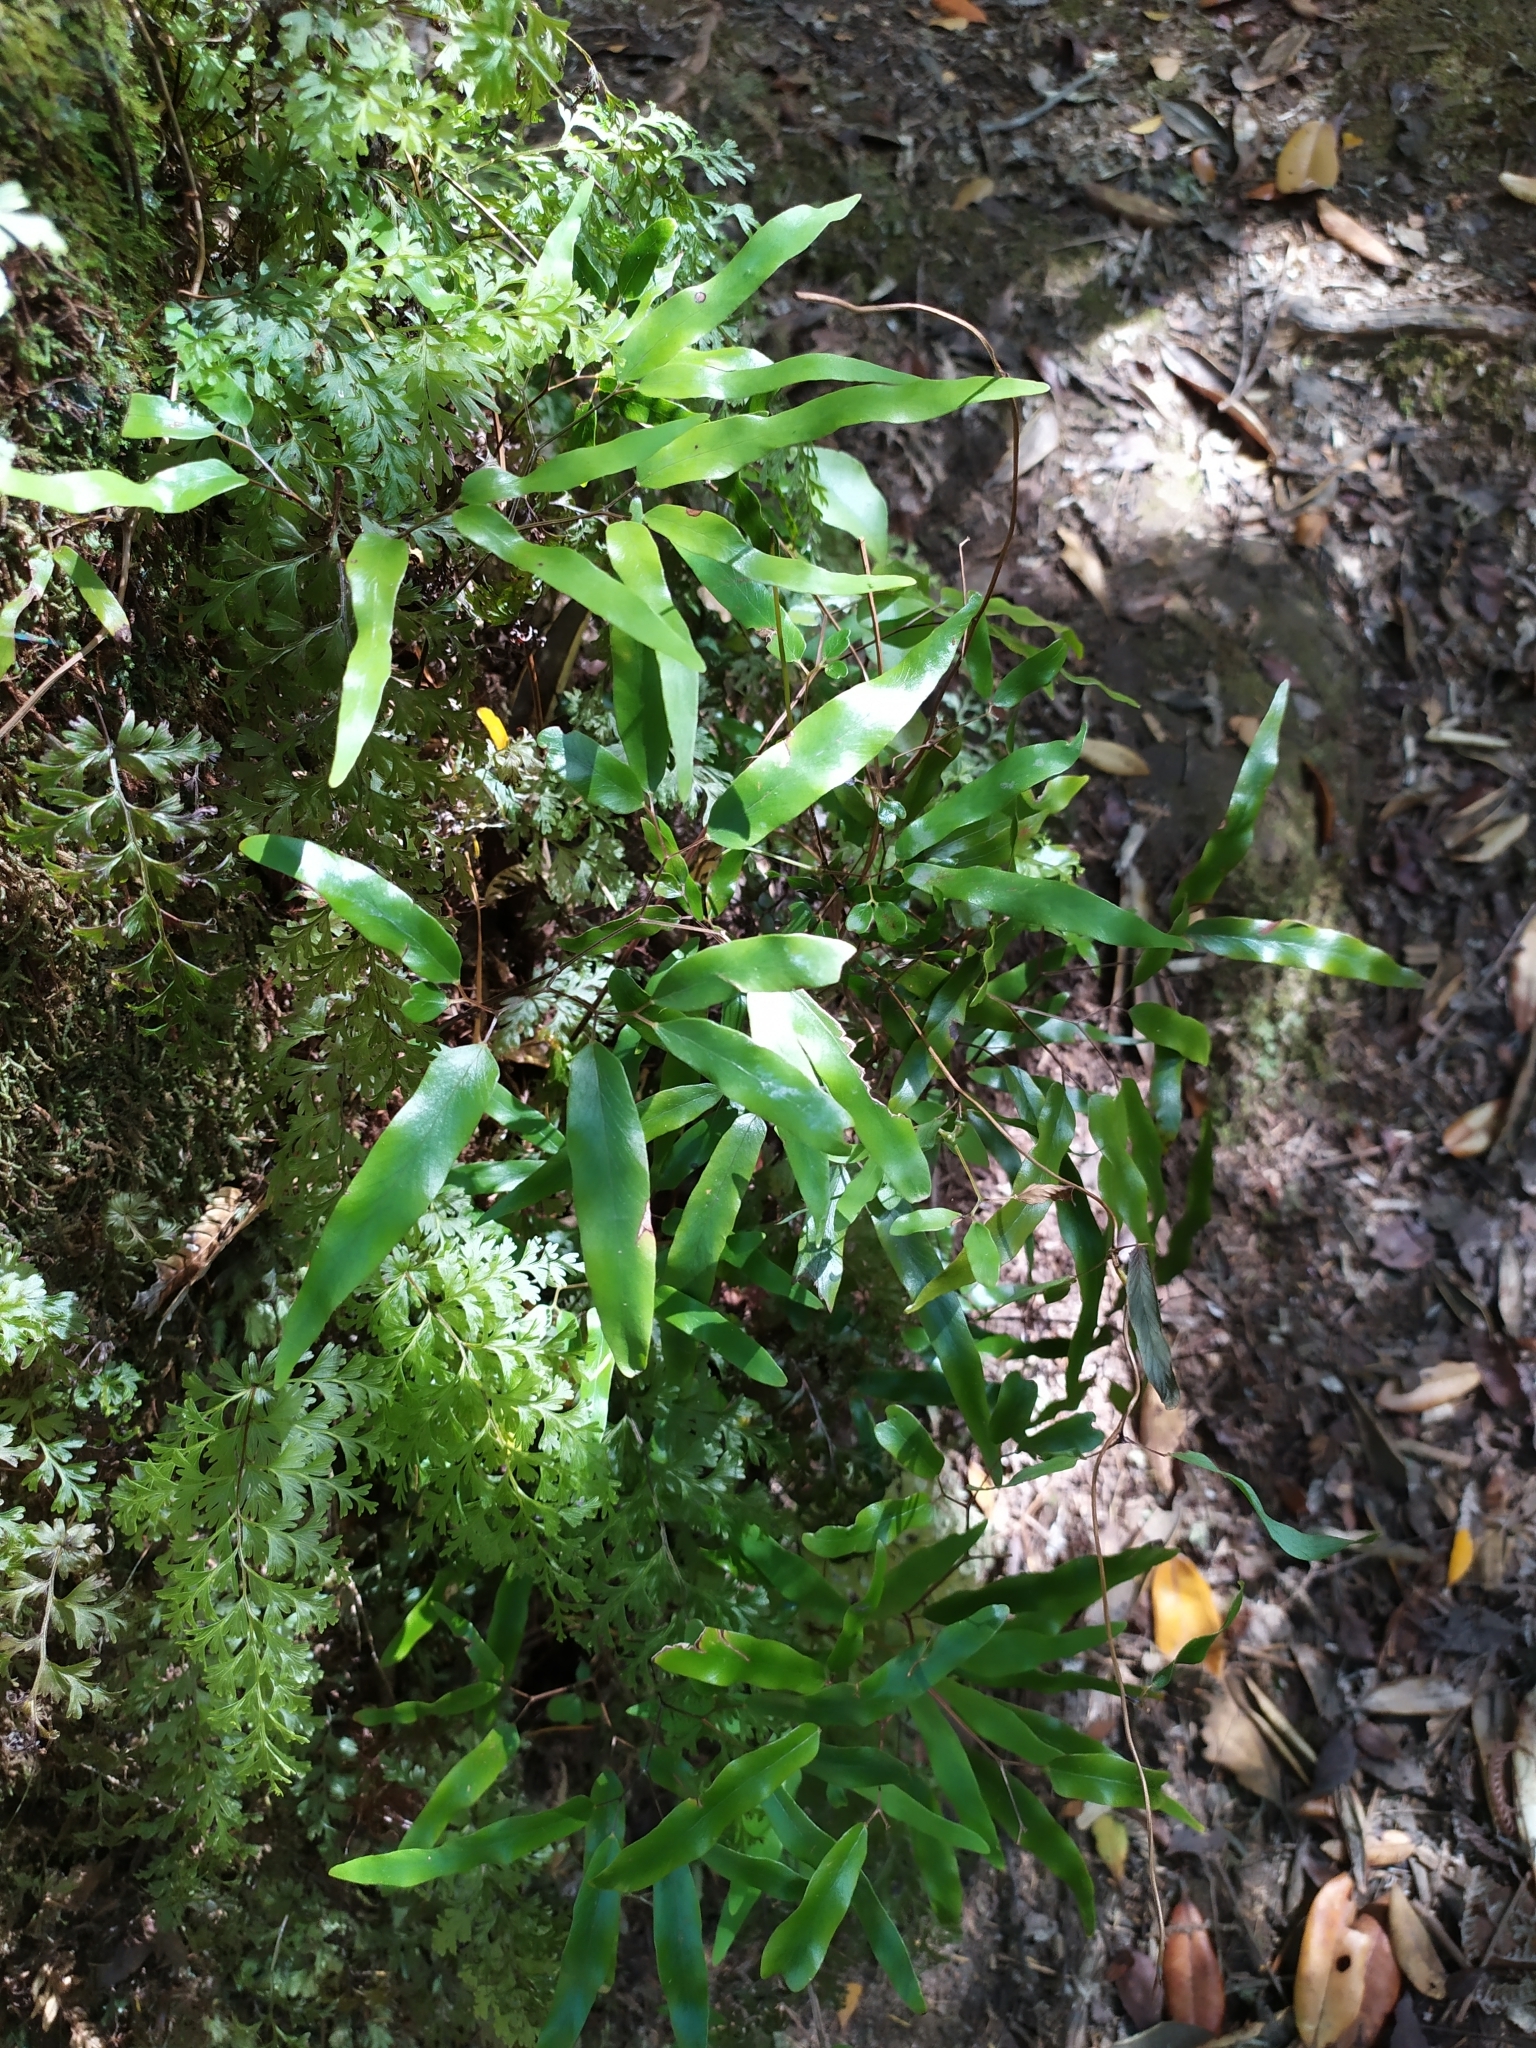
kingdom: Plantae
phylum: Tracheophyta
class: Polypodiopsida
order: Schizaeales
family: Lygodiaceae
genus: Lygodium
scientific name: Lygodium articulatum
